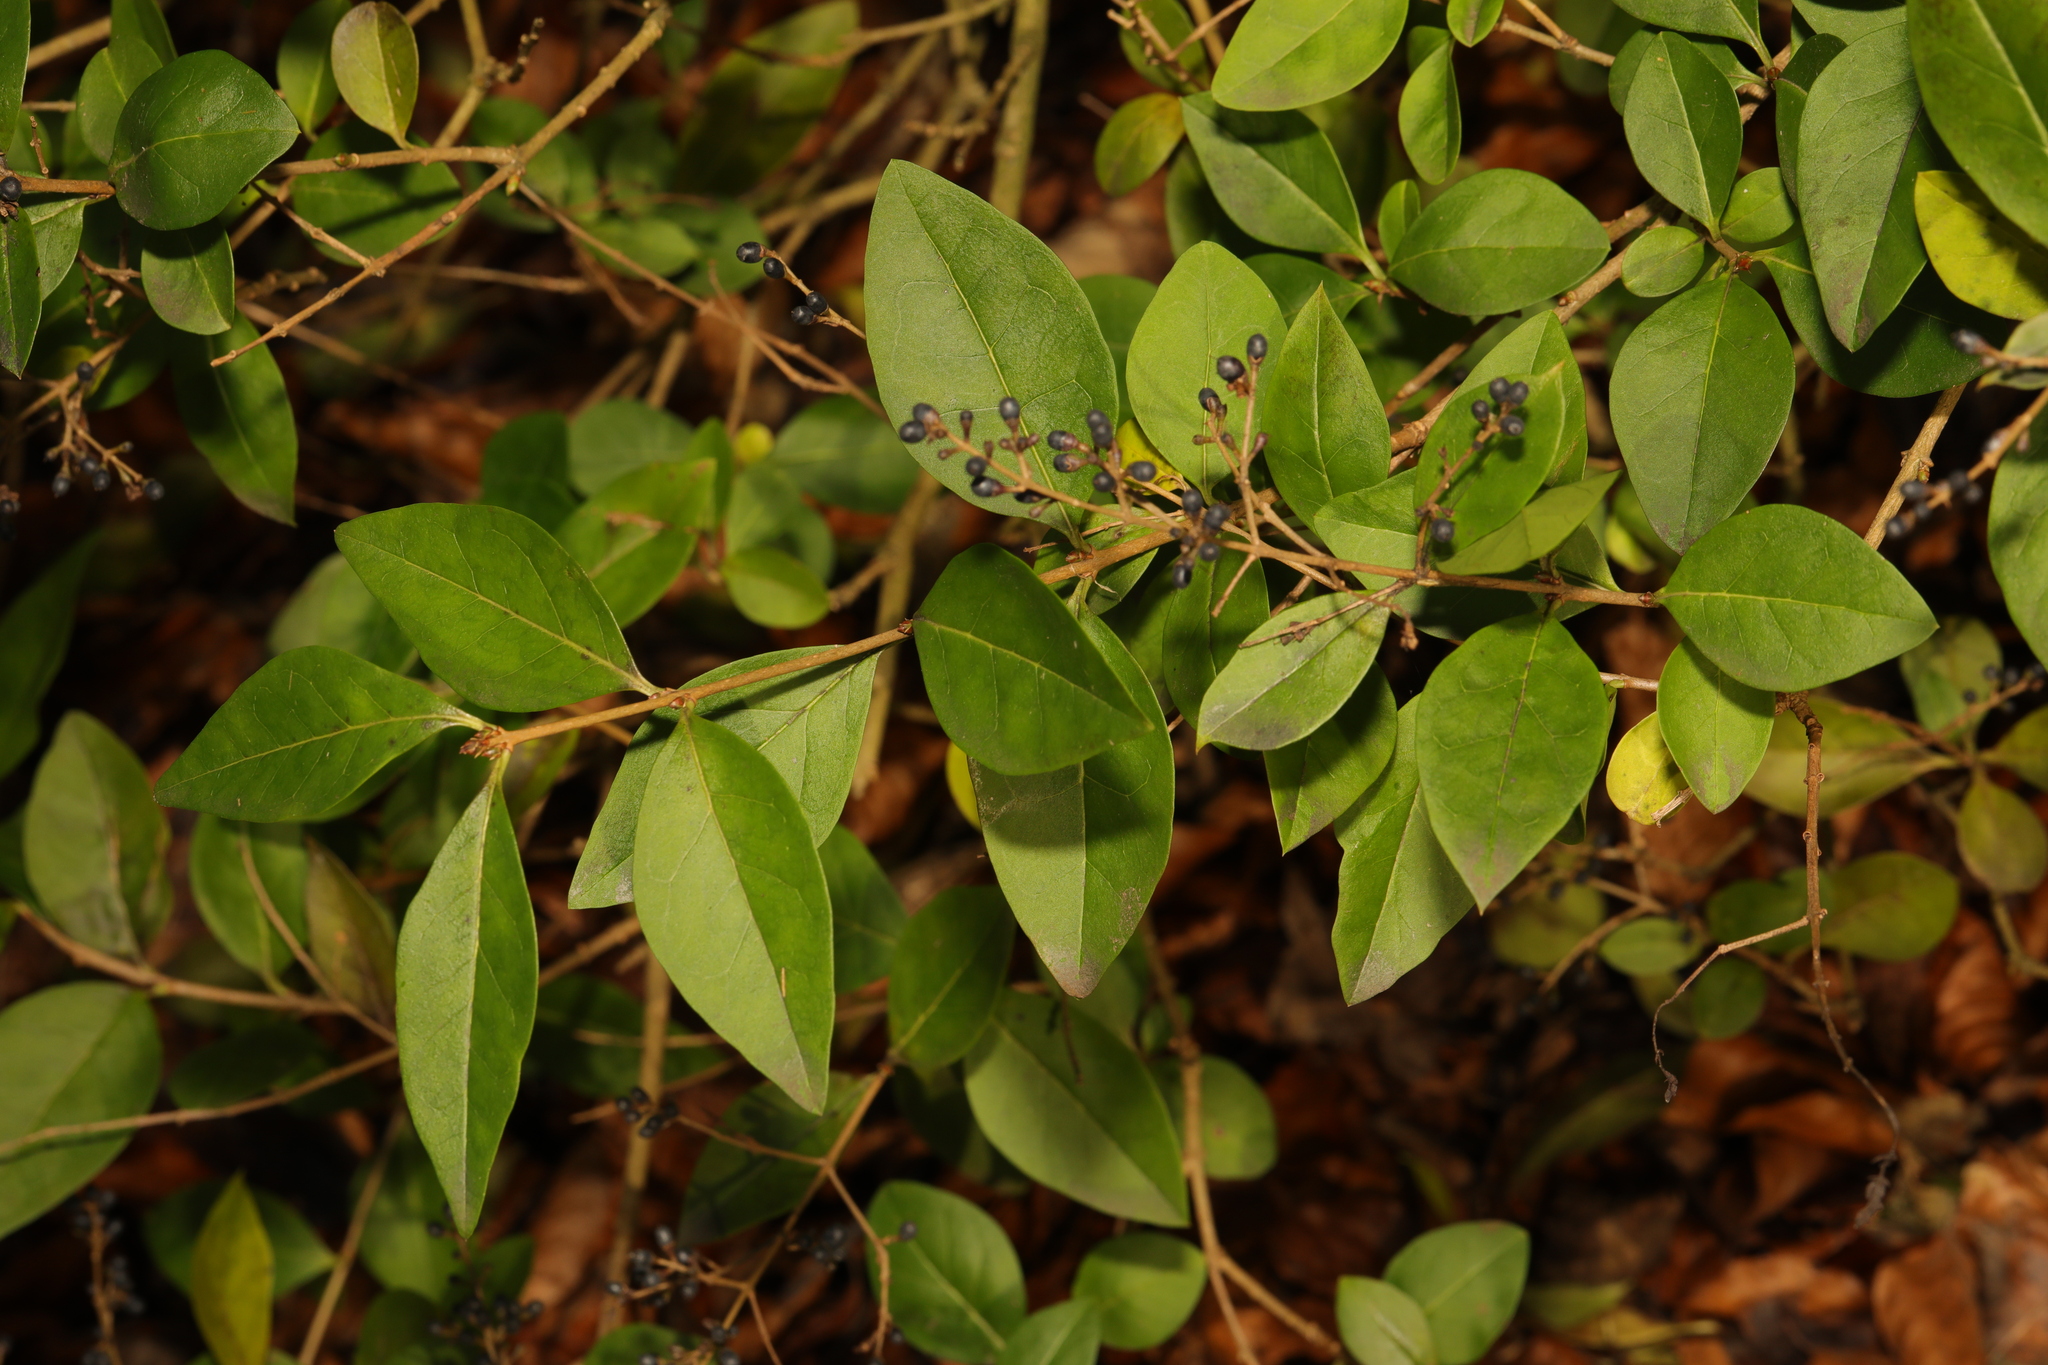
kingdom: Plantae
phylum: Tracheophyta
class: Magnoliopsida
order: Lamiales
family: Oleaceae
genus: Ligustrum
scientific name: Ligustrum ovalifolium
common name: California privet
